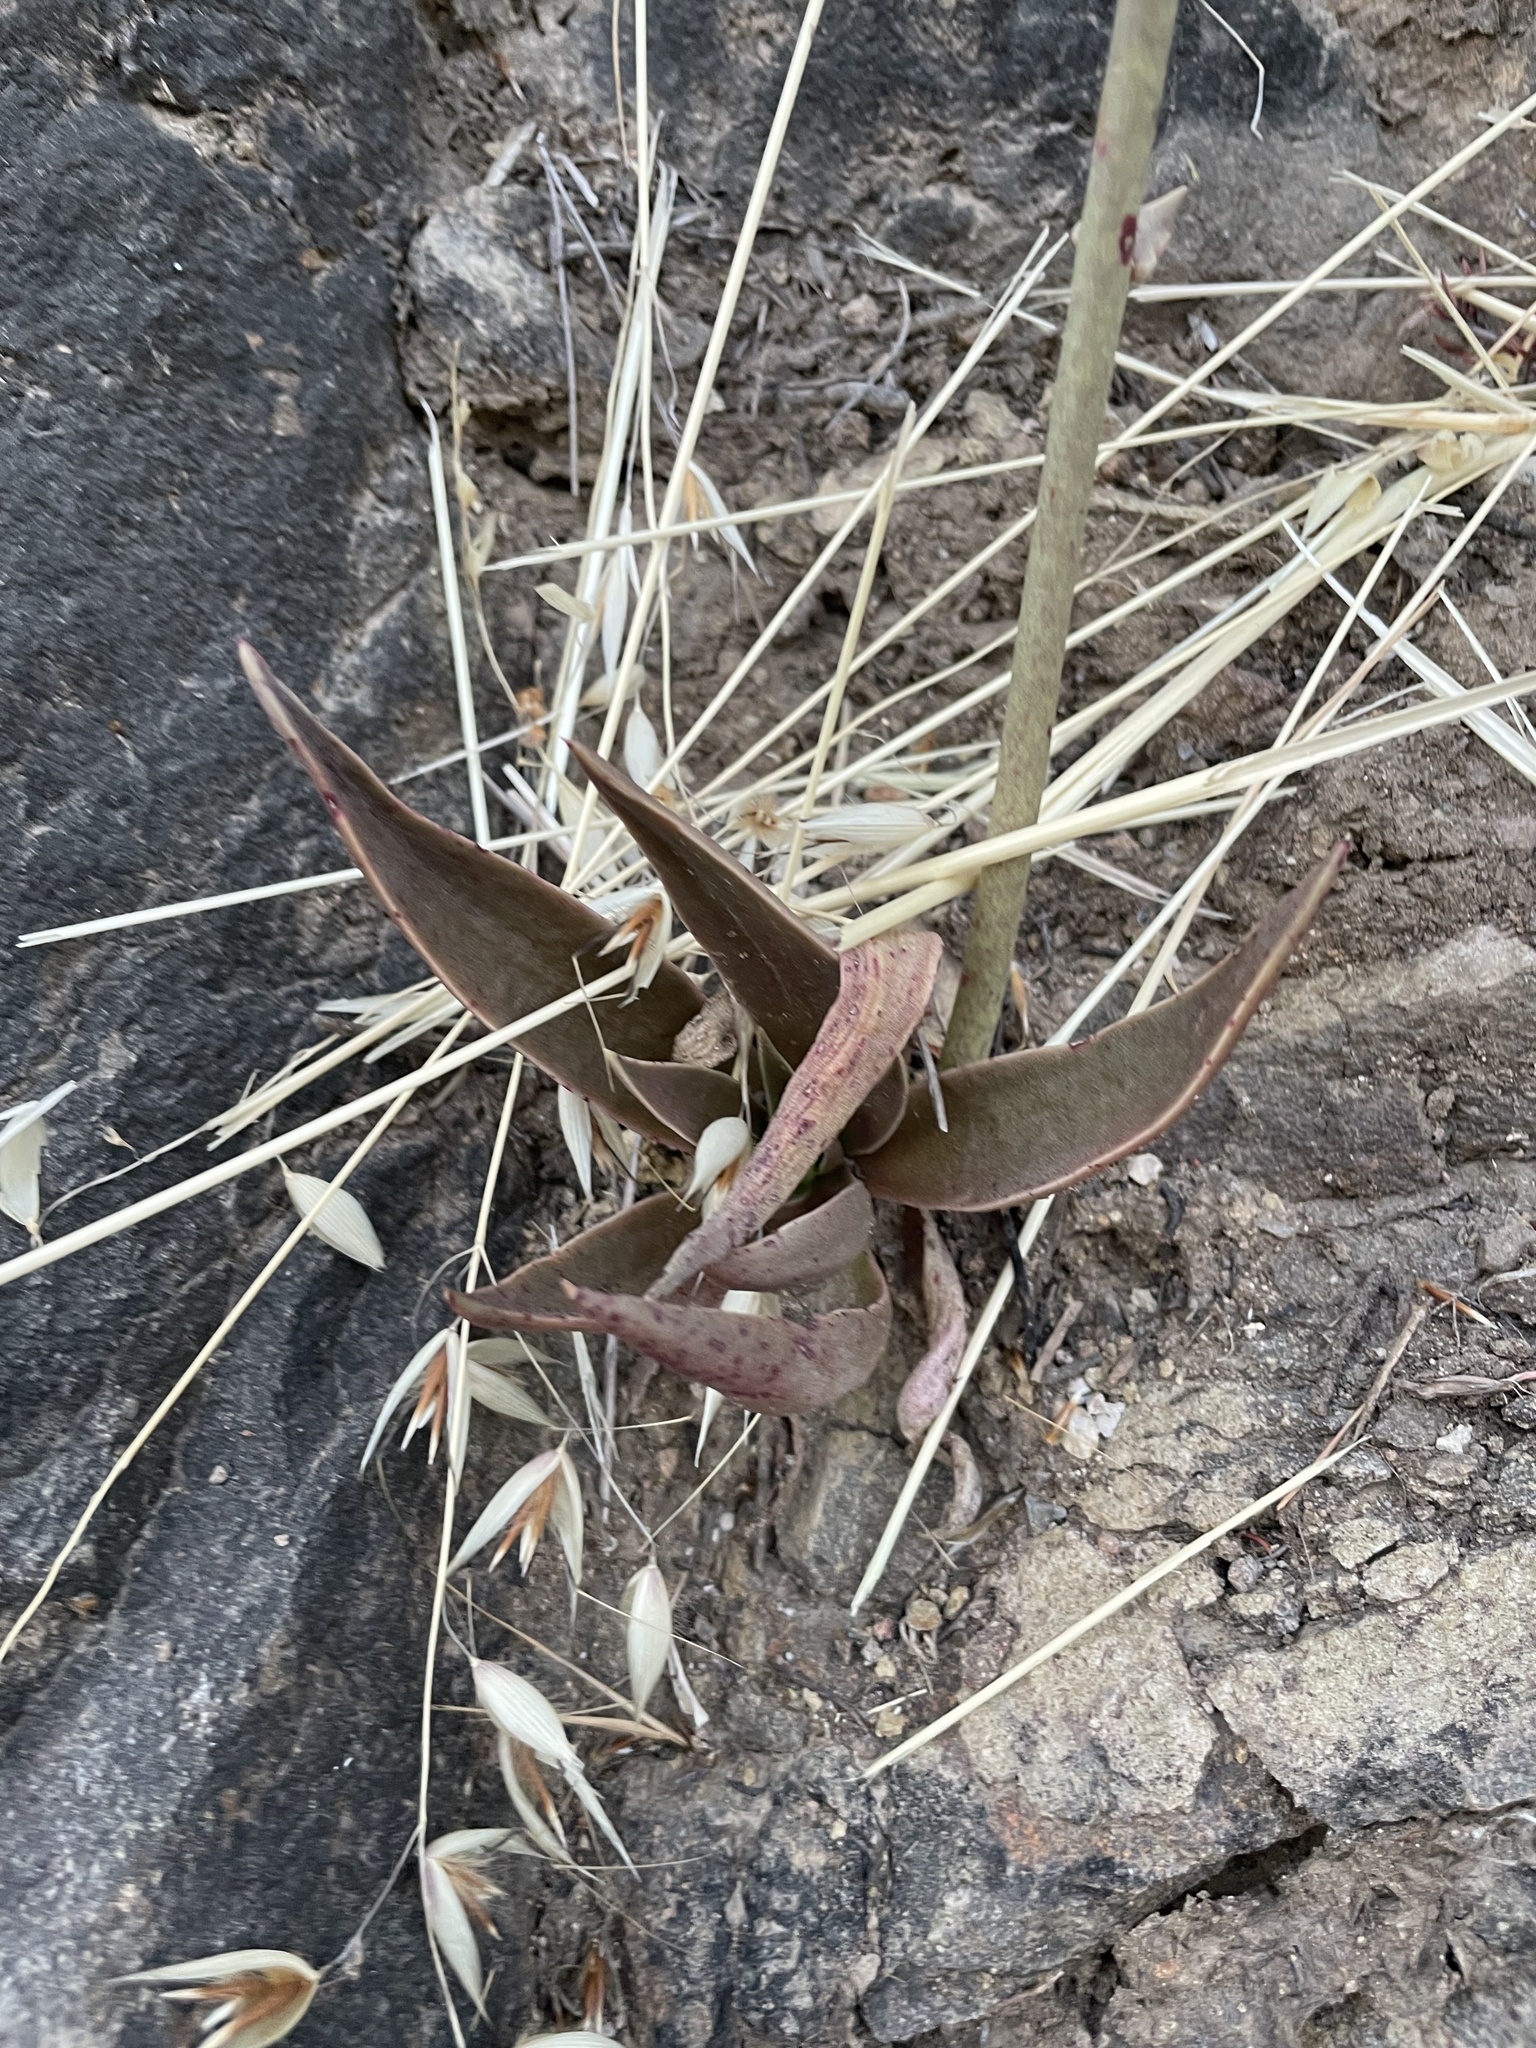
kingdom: Plantae
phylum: Tracheophyta
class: Magnoliopsida
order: Saxifragales
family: Crassulaceae
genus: Dudleya
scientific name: Dudleya lanceolata
